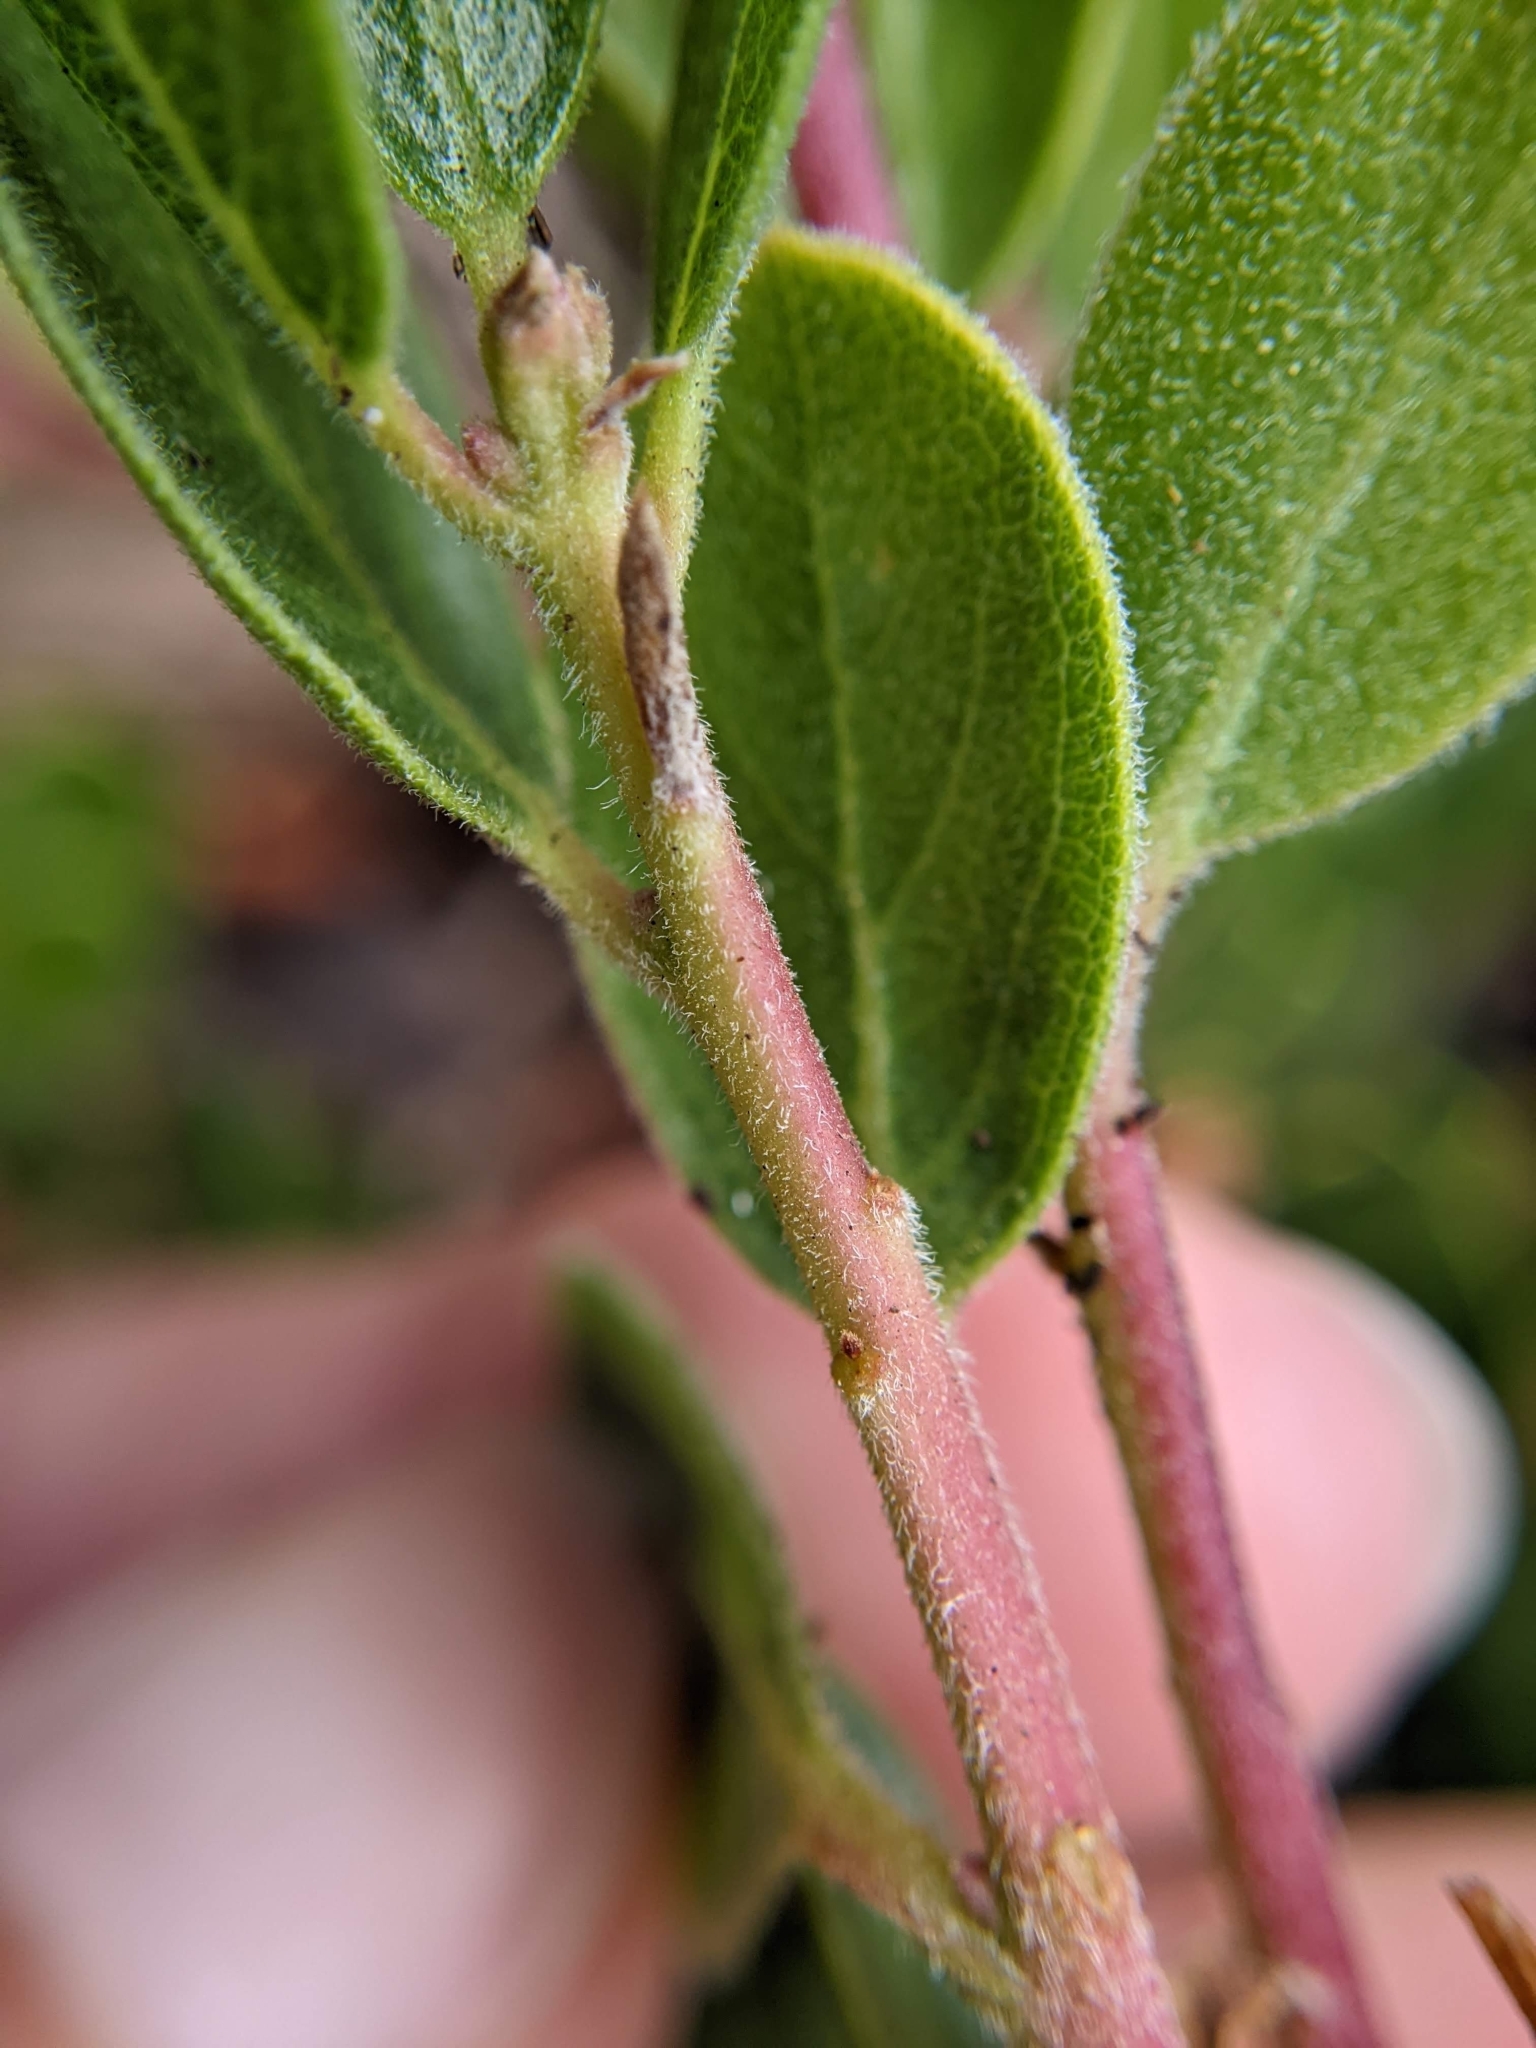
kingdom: Plantae
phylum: Tracheophyta
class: Magnoliopsida
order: Ericales
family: Ericaceae
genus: Arctostaphylos
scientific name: Arctostaphylos nevadensis
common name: Pinemat manzanita
